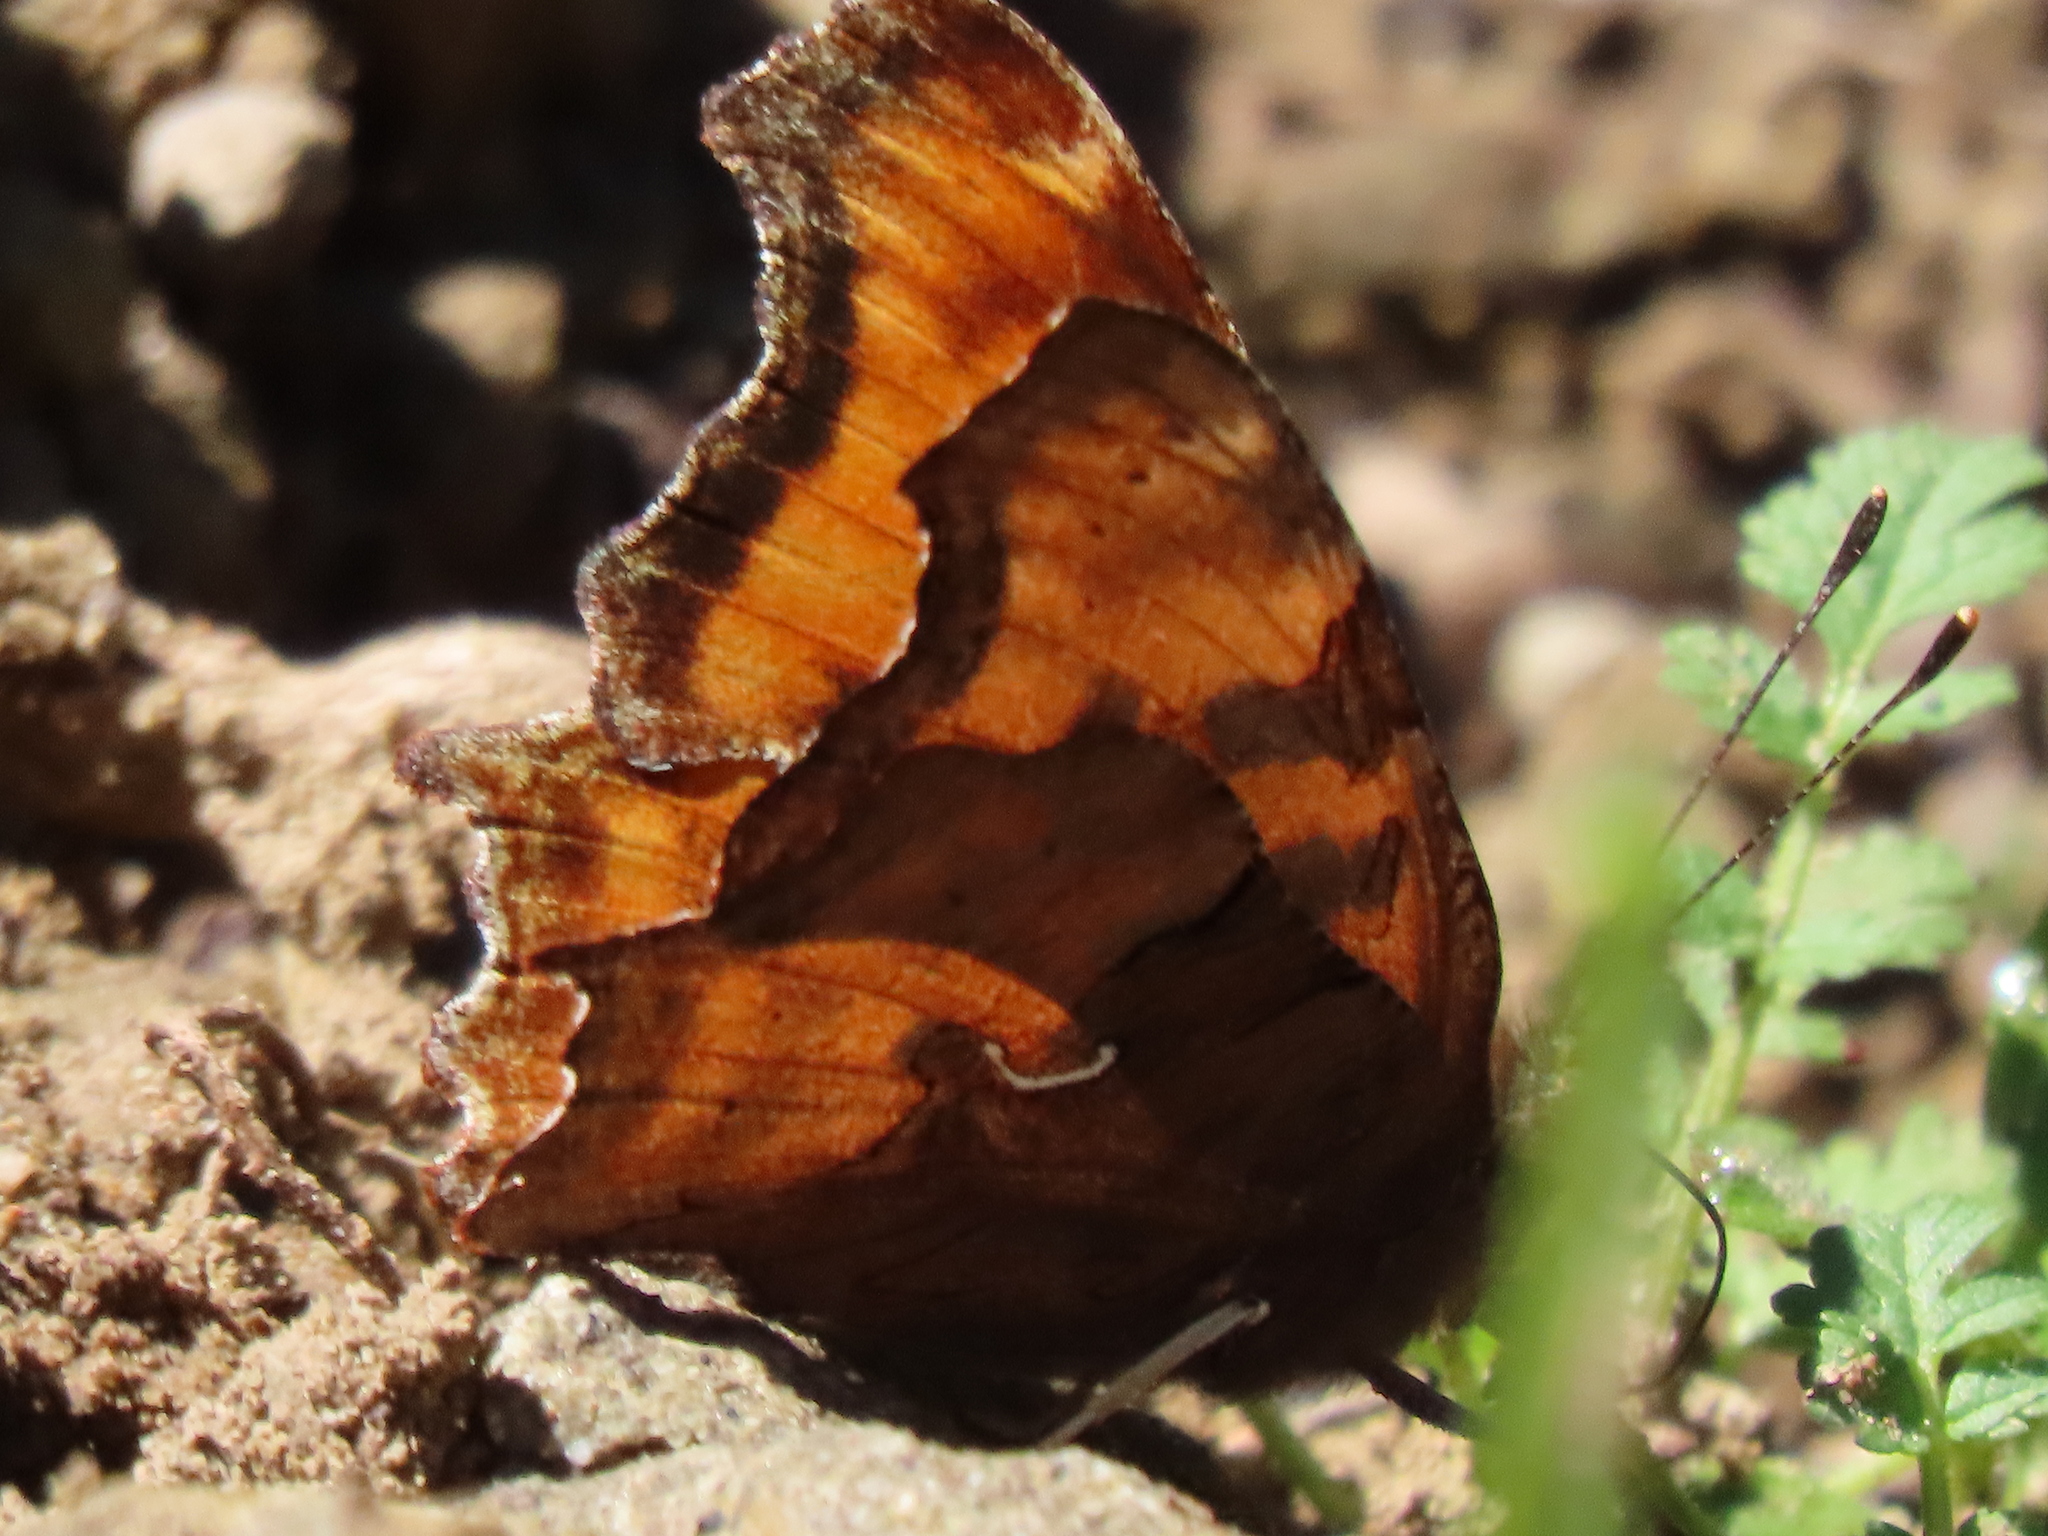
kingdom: Animalia
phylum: Arthropoda
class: Insecta
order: Lepidoptera
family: Nymphalidae
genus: Polygonia
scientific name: Polygonia satyrus
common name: Satyr angle wing
